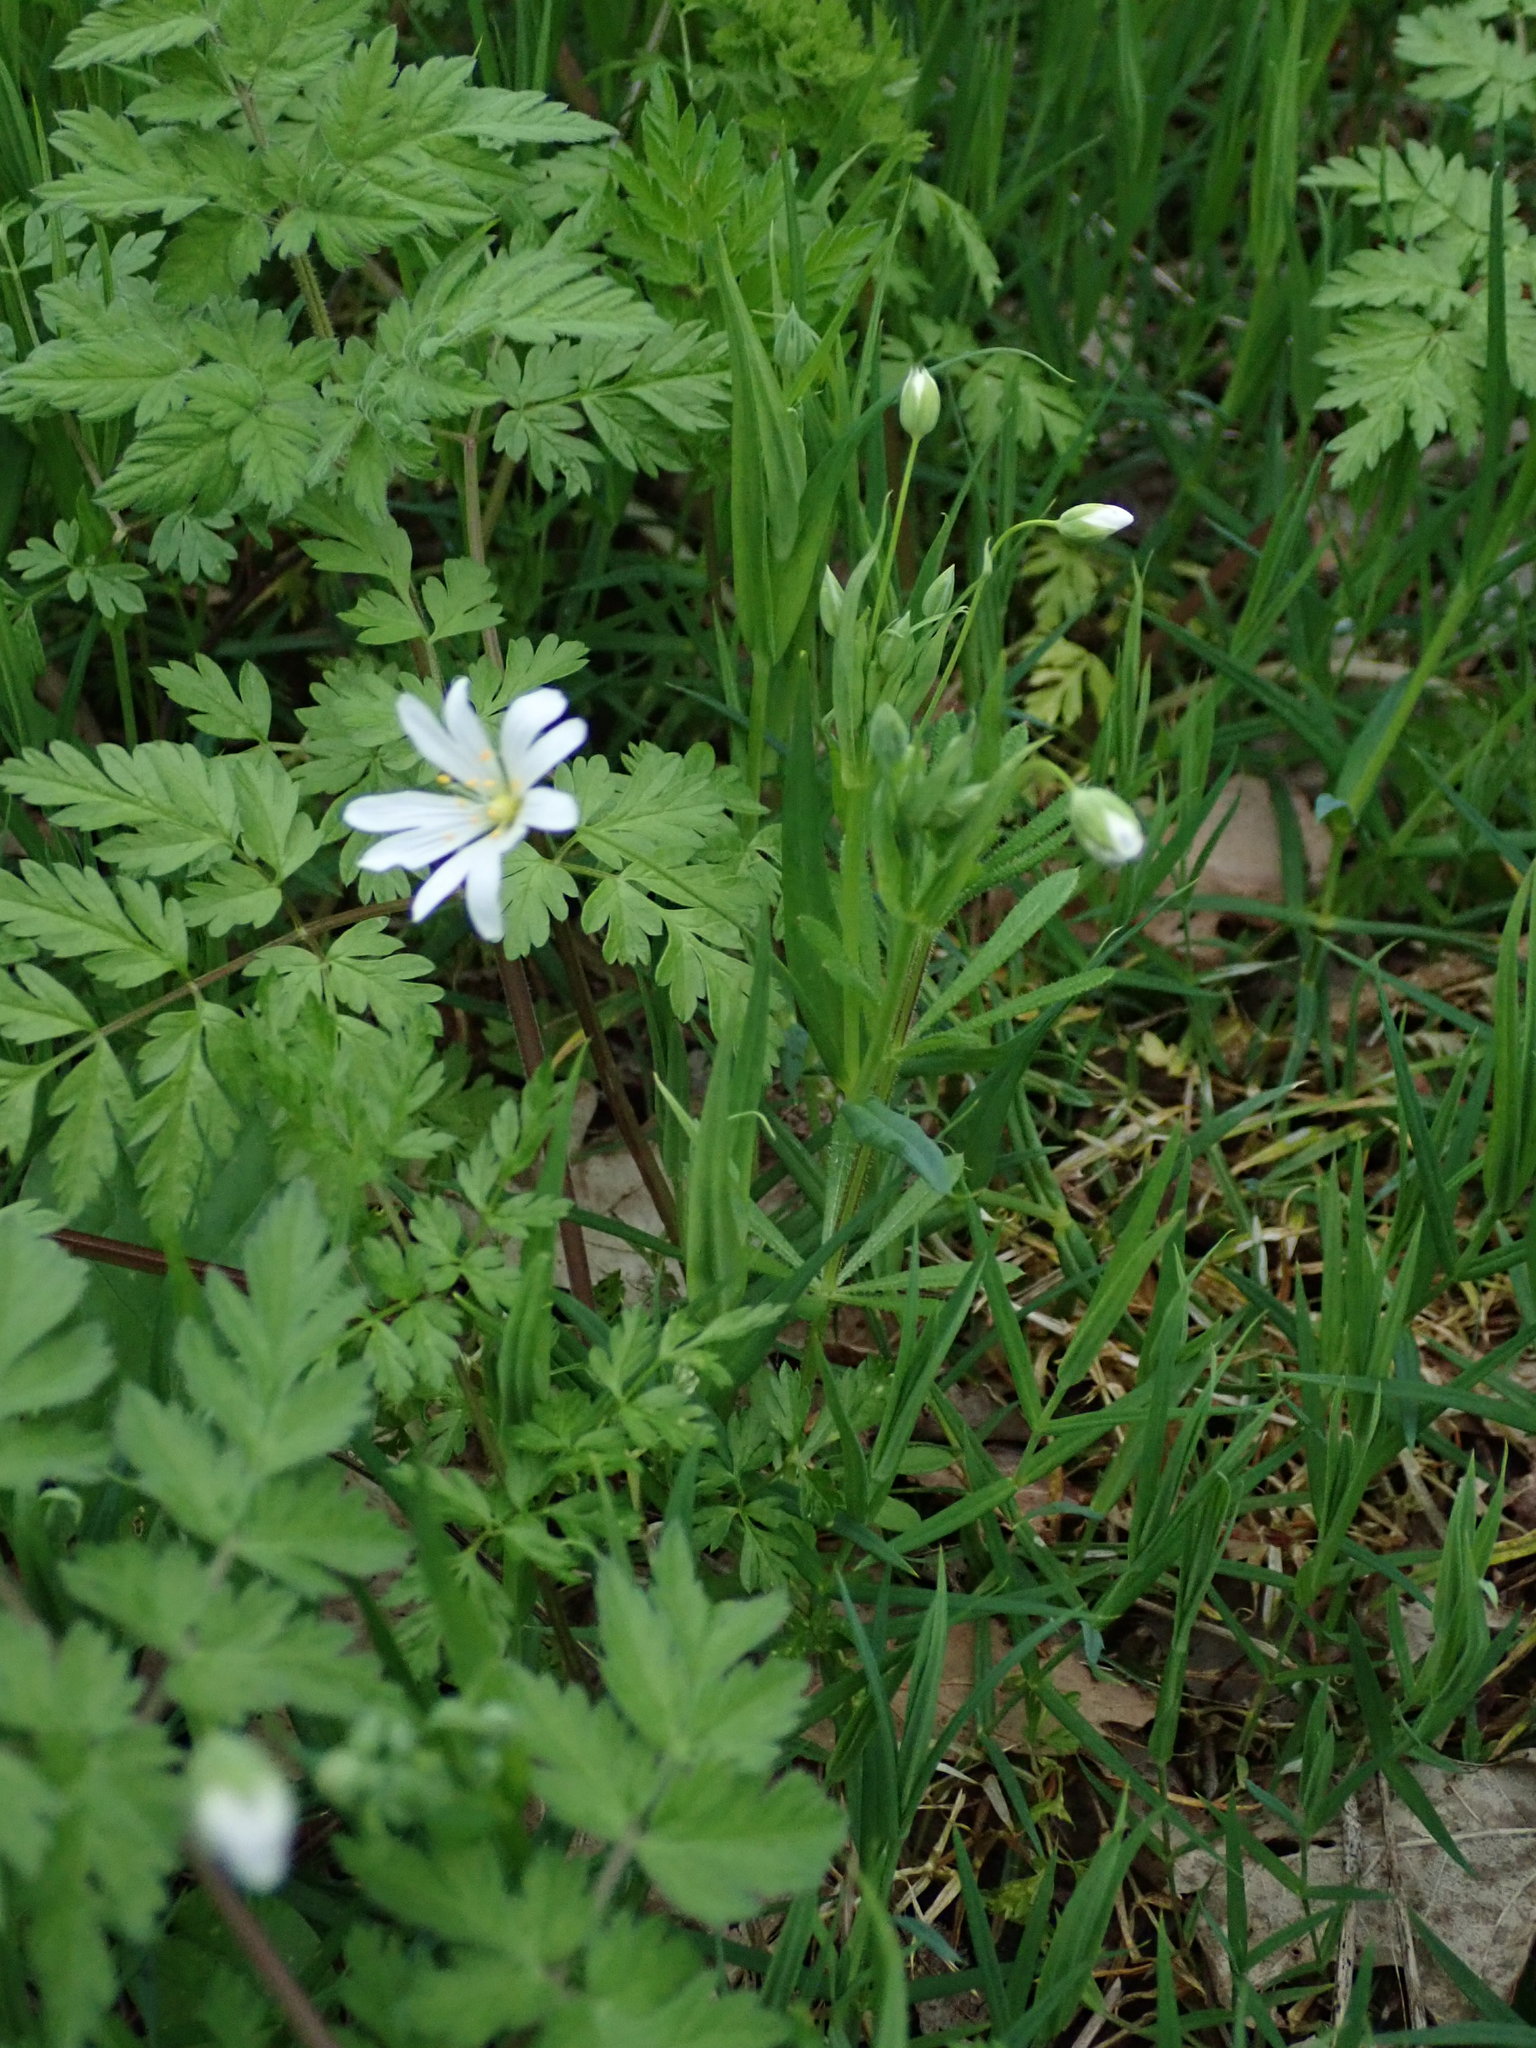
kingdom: Plantae
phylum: Tracheophyta
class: Magnoliopsida
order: Caryophyllales
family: Caryophyllaceae
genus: Rabelera
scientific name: Rabelera holostea
